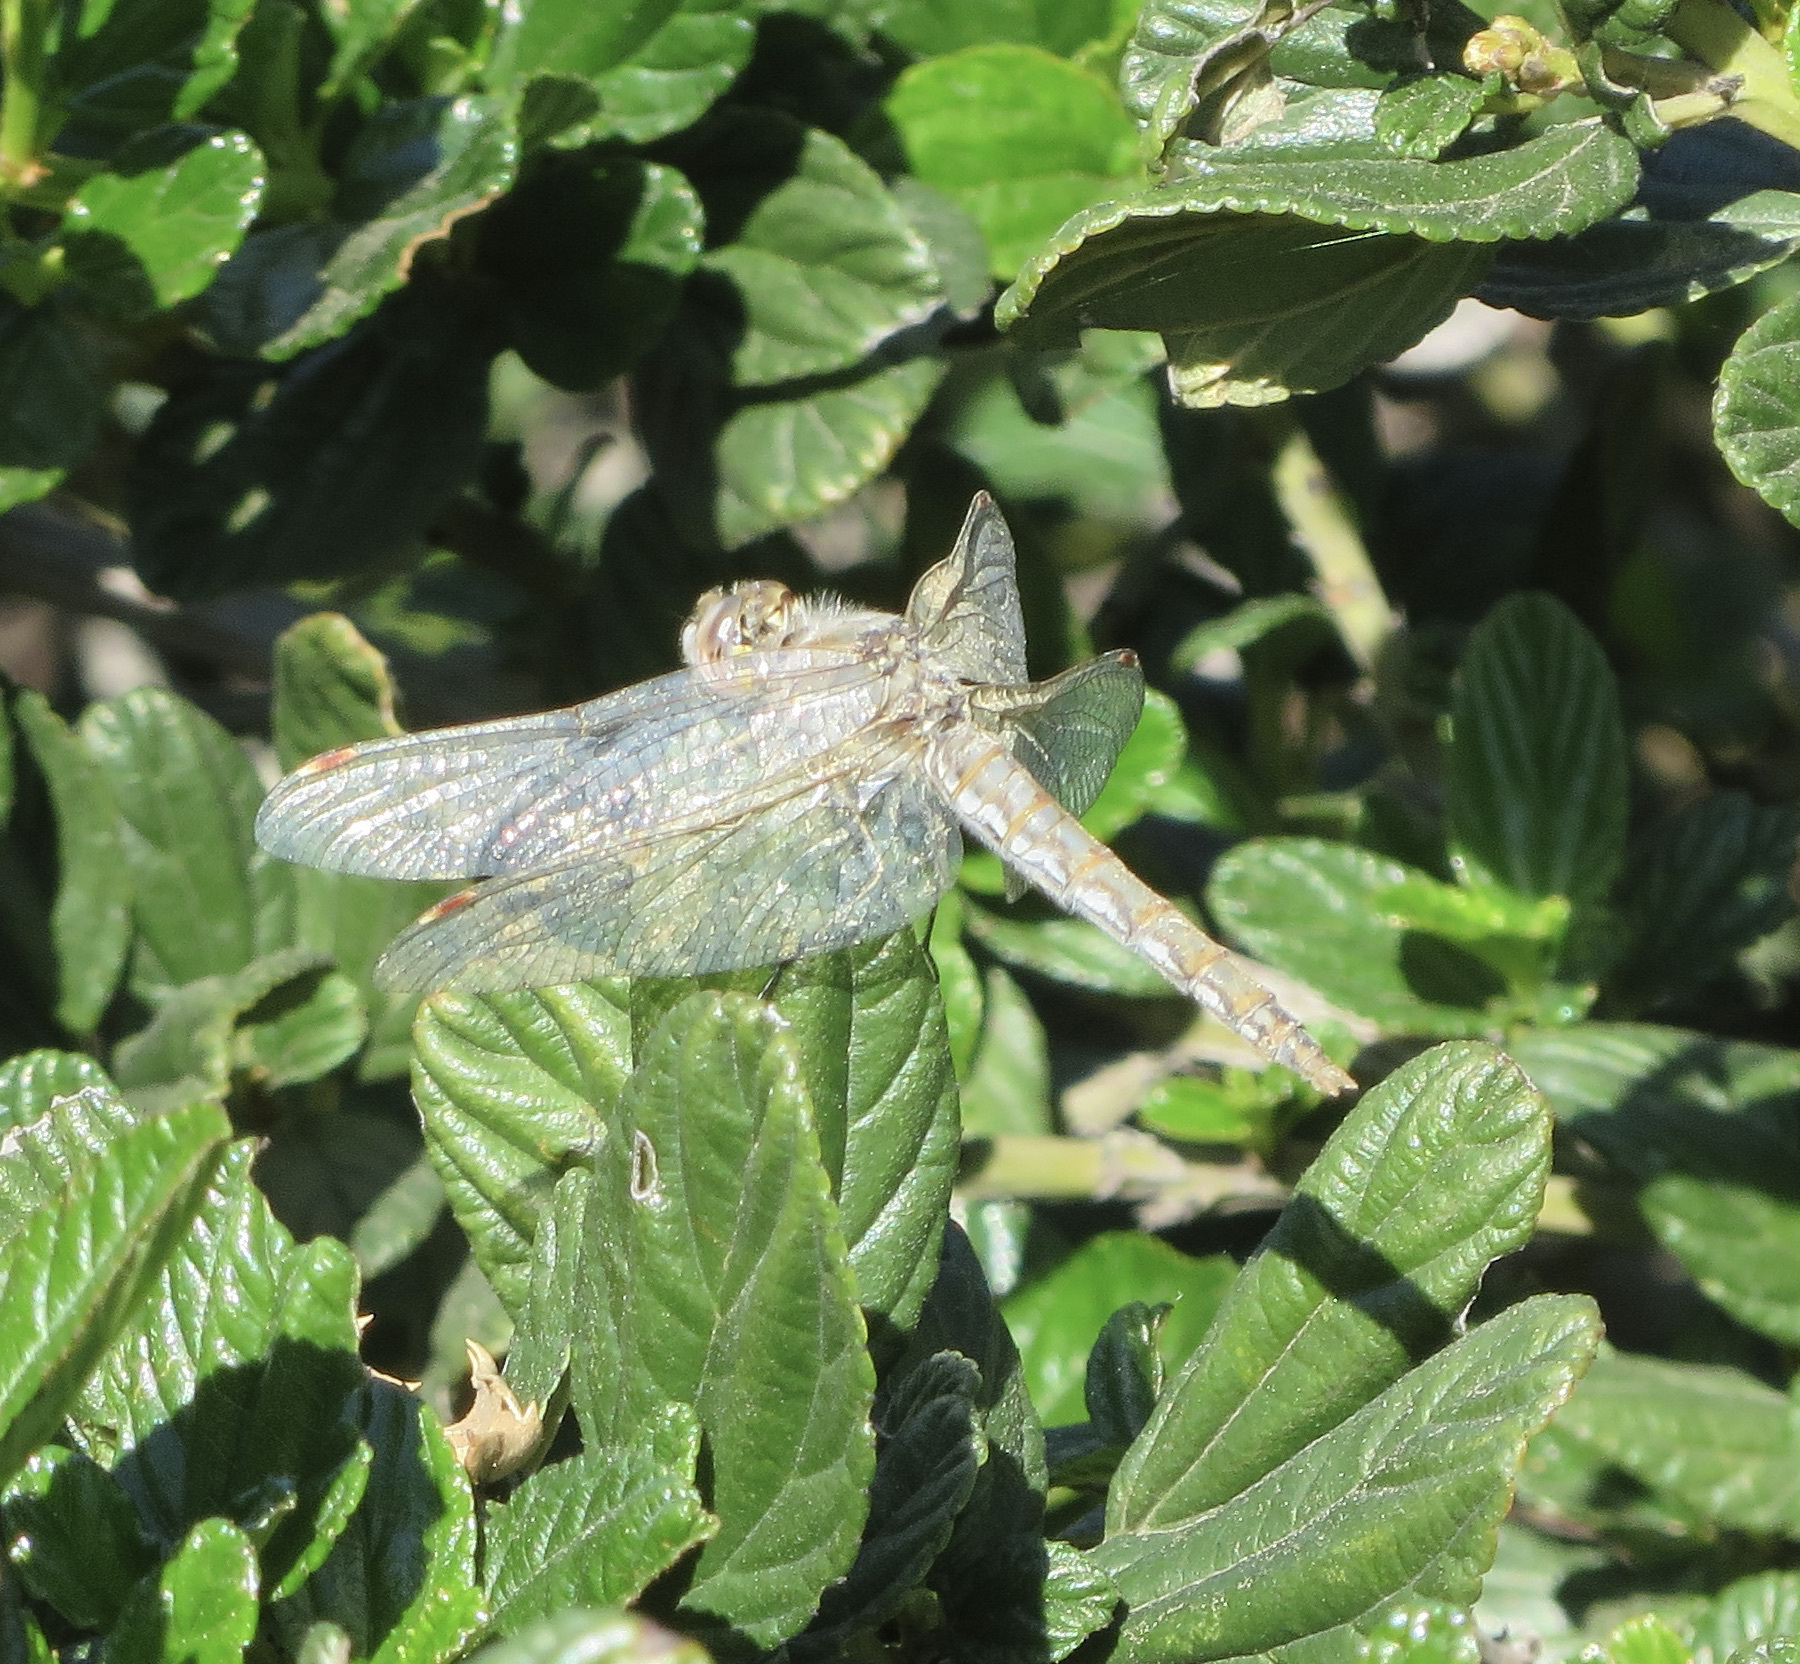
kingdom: Animalia
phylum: Arthropoda
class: Insecta
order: Odonata
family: Libellulidae
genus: Sympetrum
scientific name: Sympetrum corruptum
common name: Variegated meadowhawk
